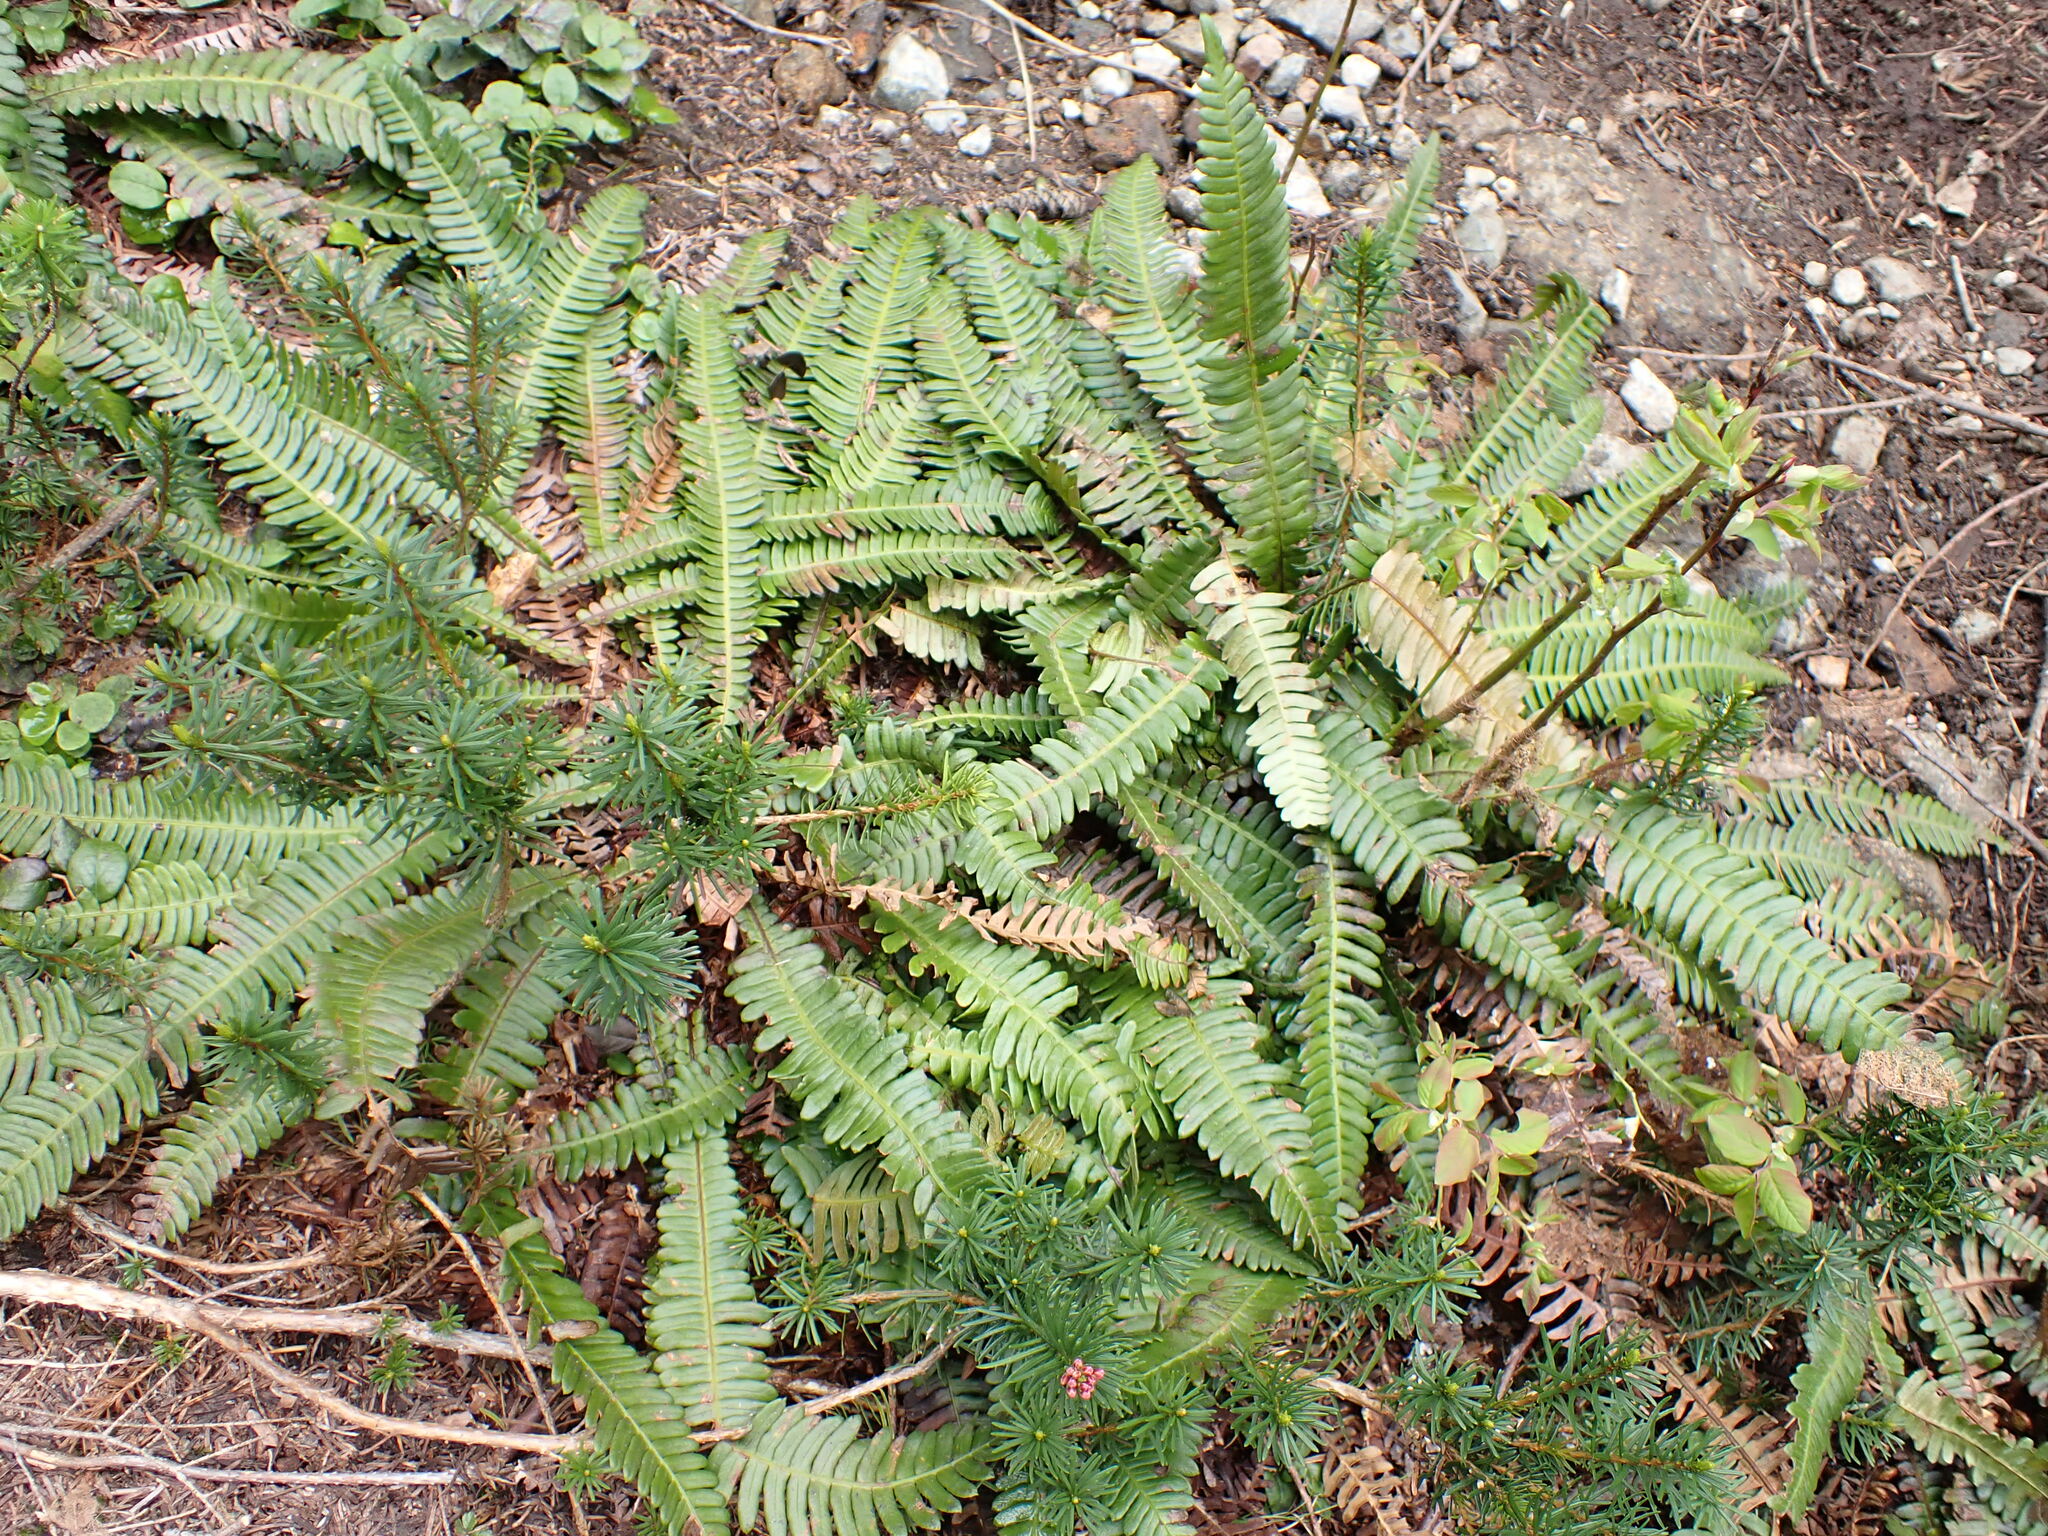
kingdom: Plantae
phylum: Tracheophyta
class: Polypodiopsida
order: Polypodiales
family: Blechnaceae
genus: Struthiopteris
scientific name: Struthiopteris spicant
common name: Deer fern
